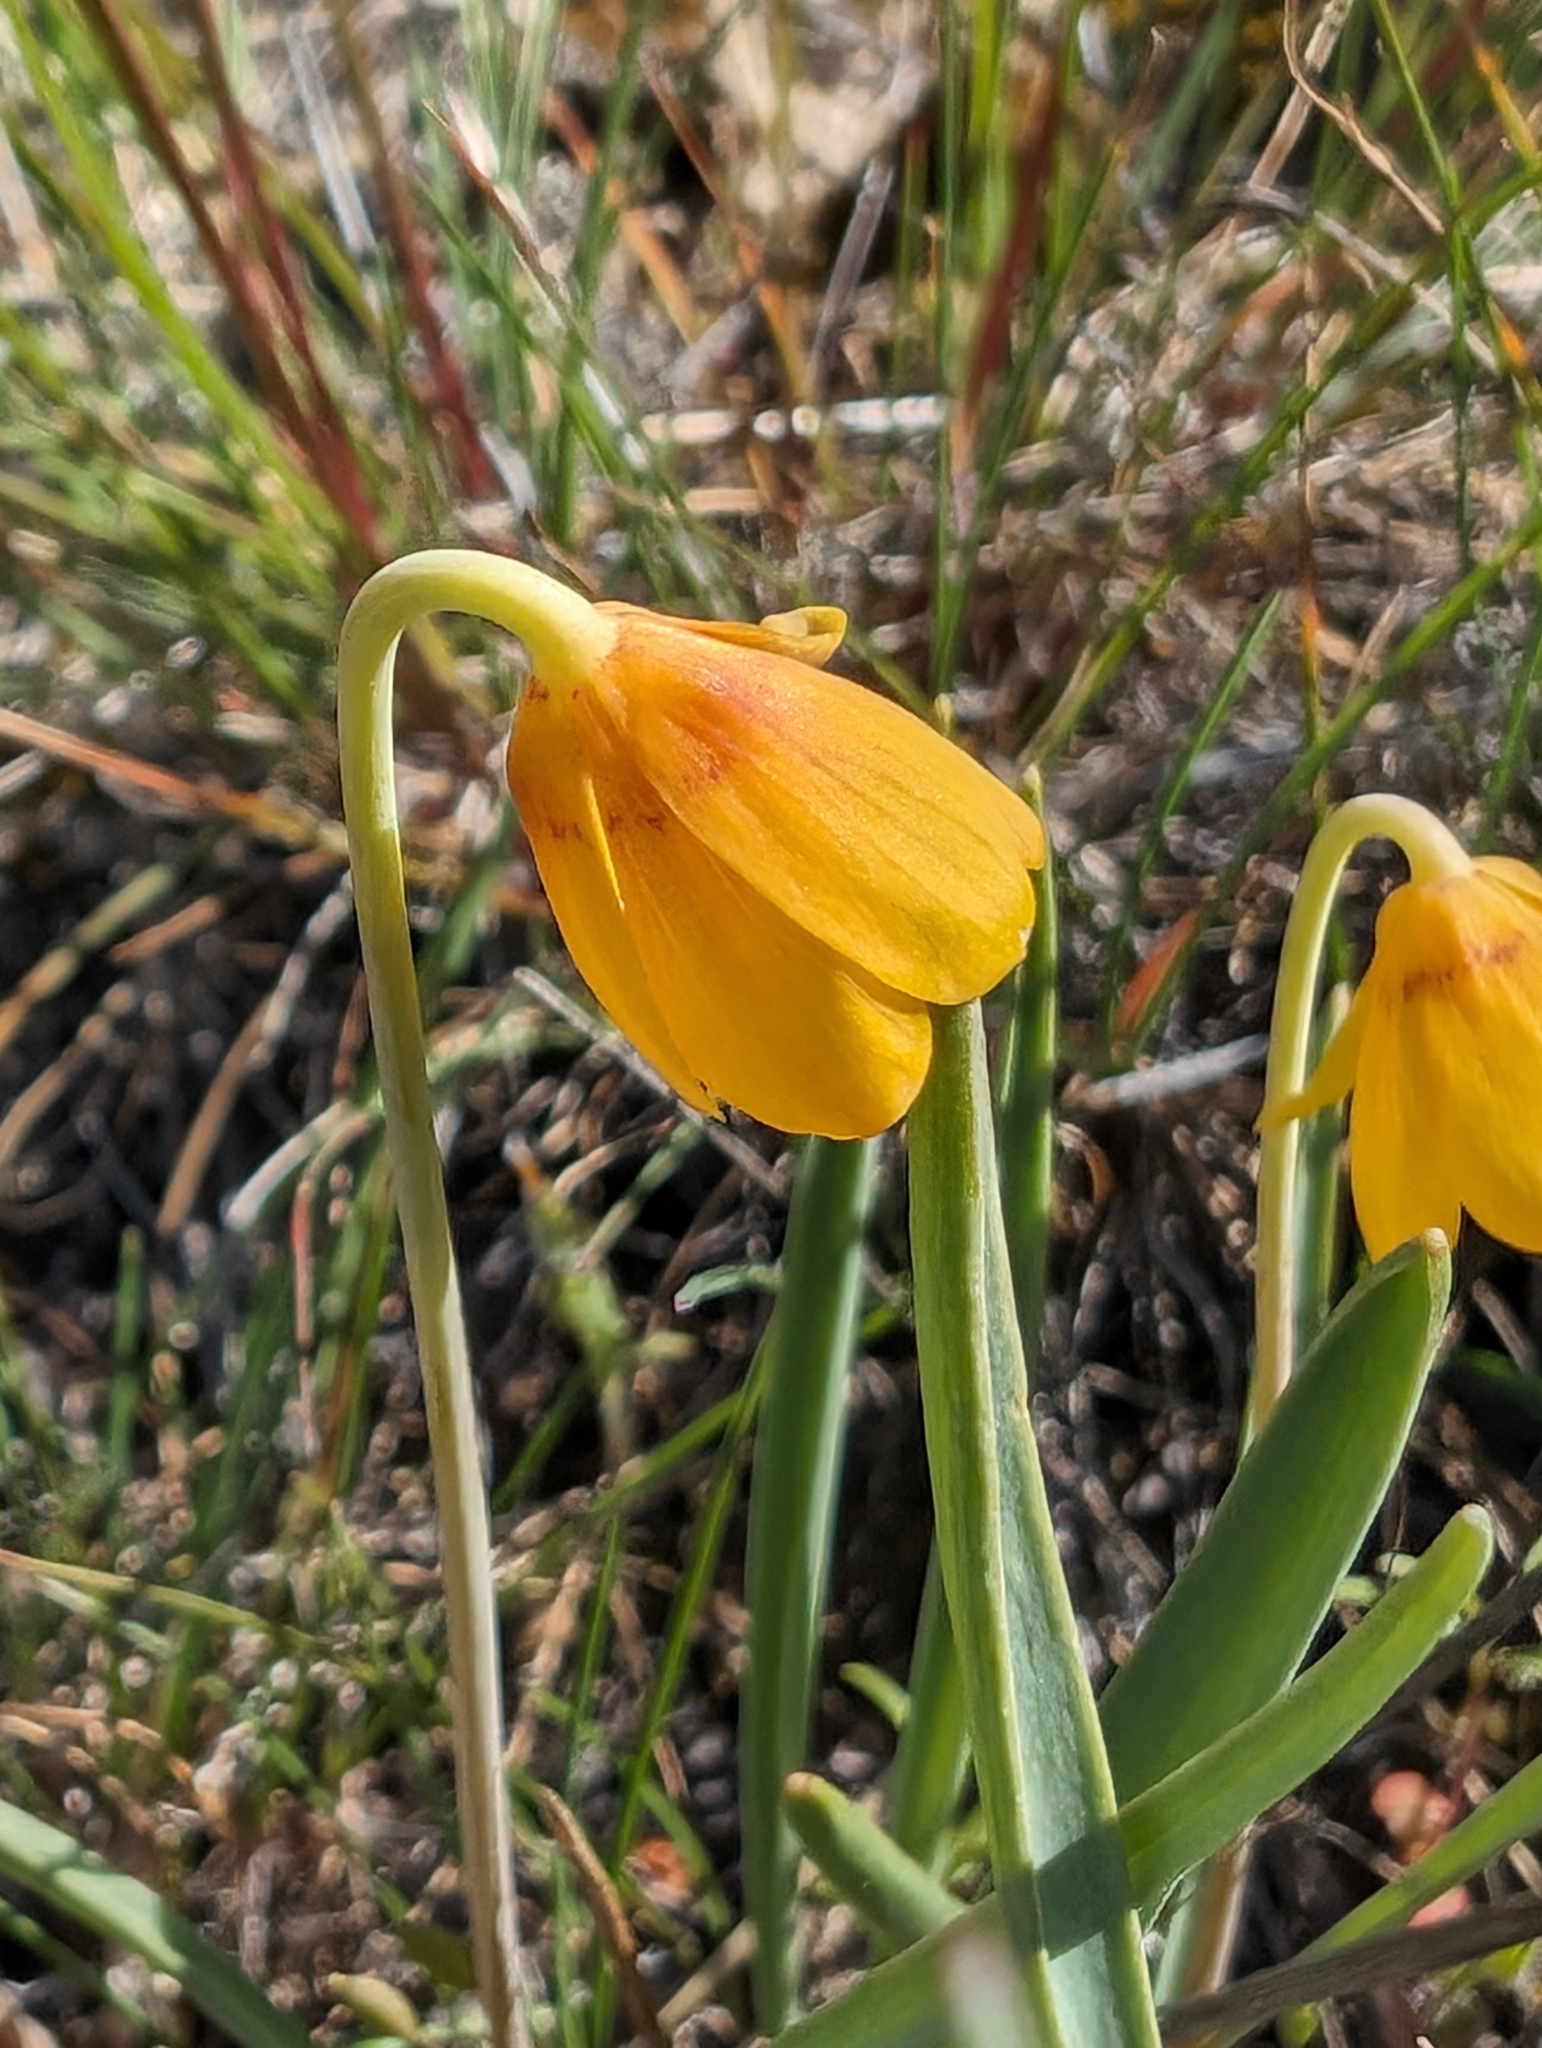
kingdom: Plantae
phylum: Tracheophyta
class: Liliopsida
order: Liliales
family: Liliaceae
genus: Fritillaria
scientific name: Fritillaria pudica
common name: Yellow fritillary
